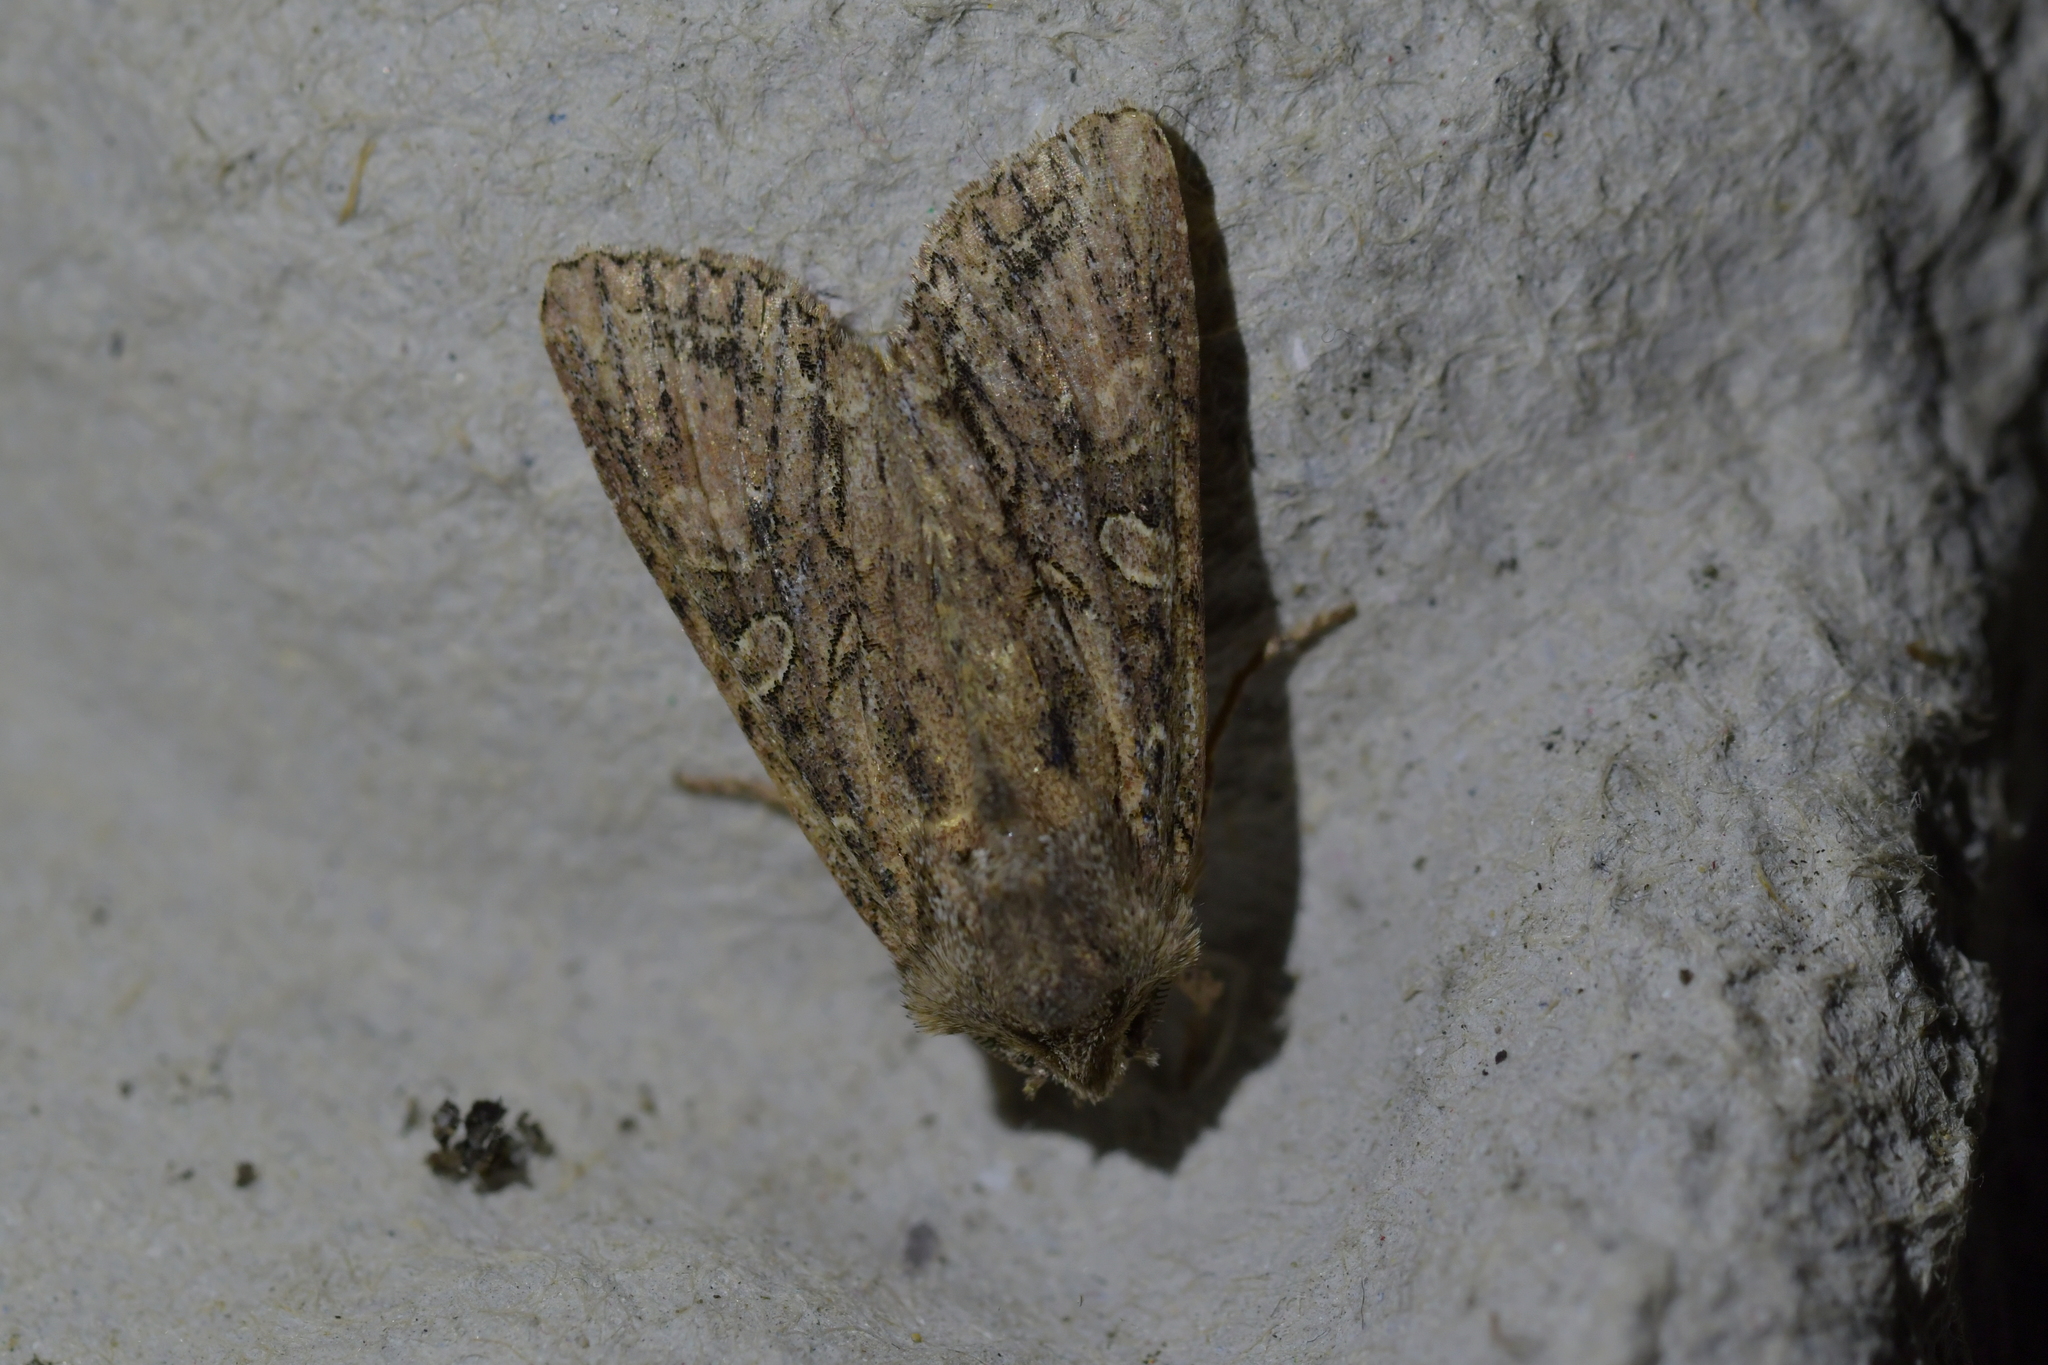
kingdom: Animalia
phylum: Arthropoda
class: Insecta
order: Lepidoptera
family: Noctuidae
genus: Ichneutica
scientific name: Ichneutica mutans
